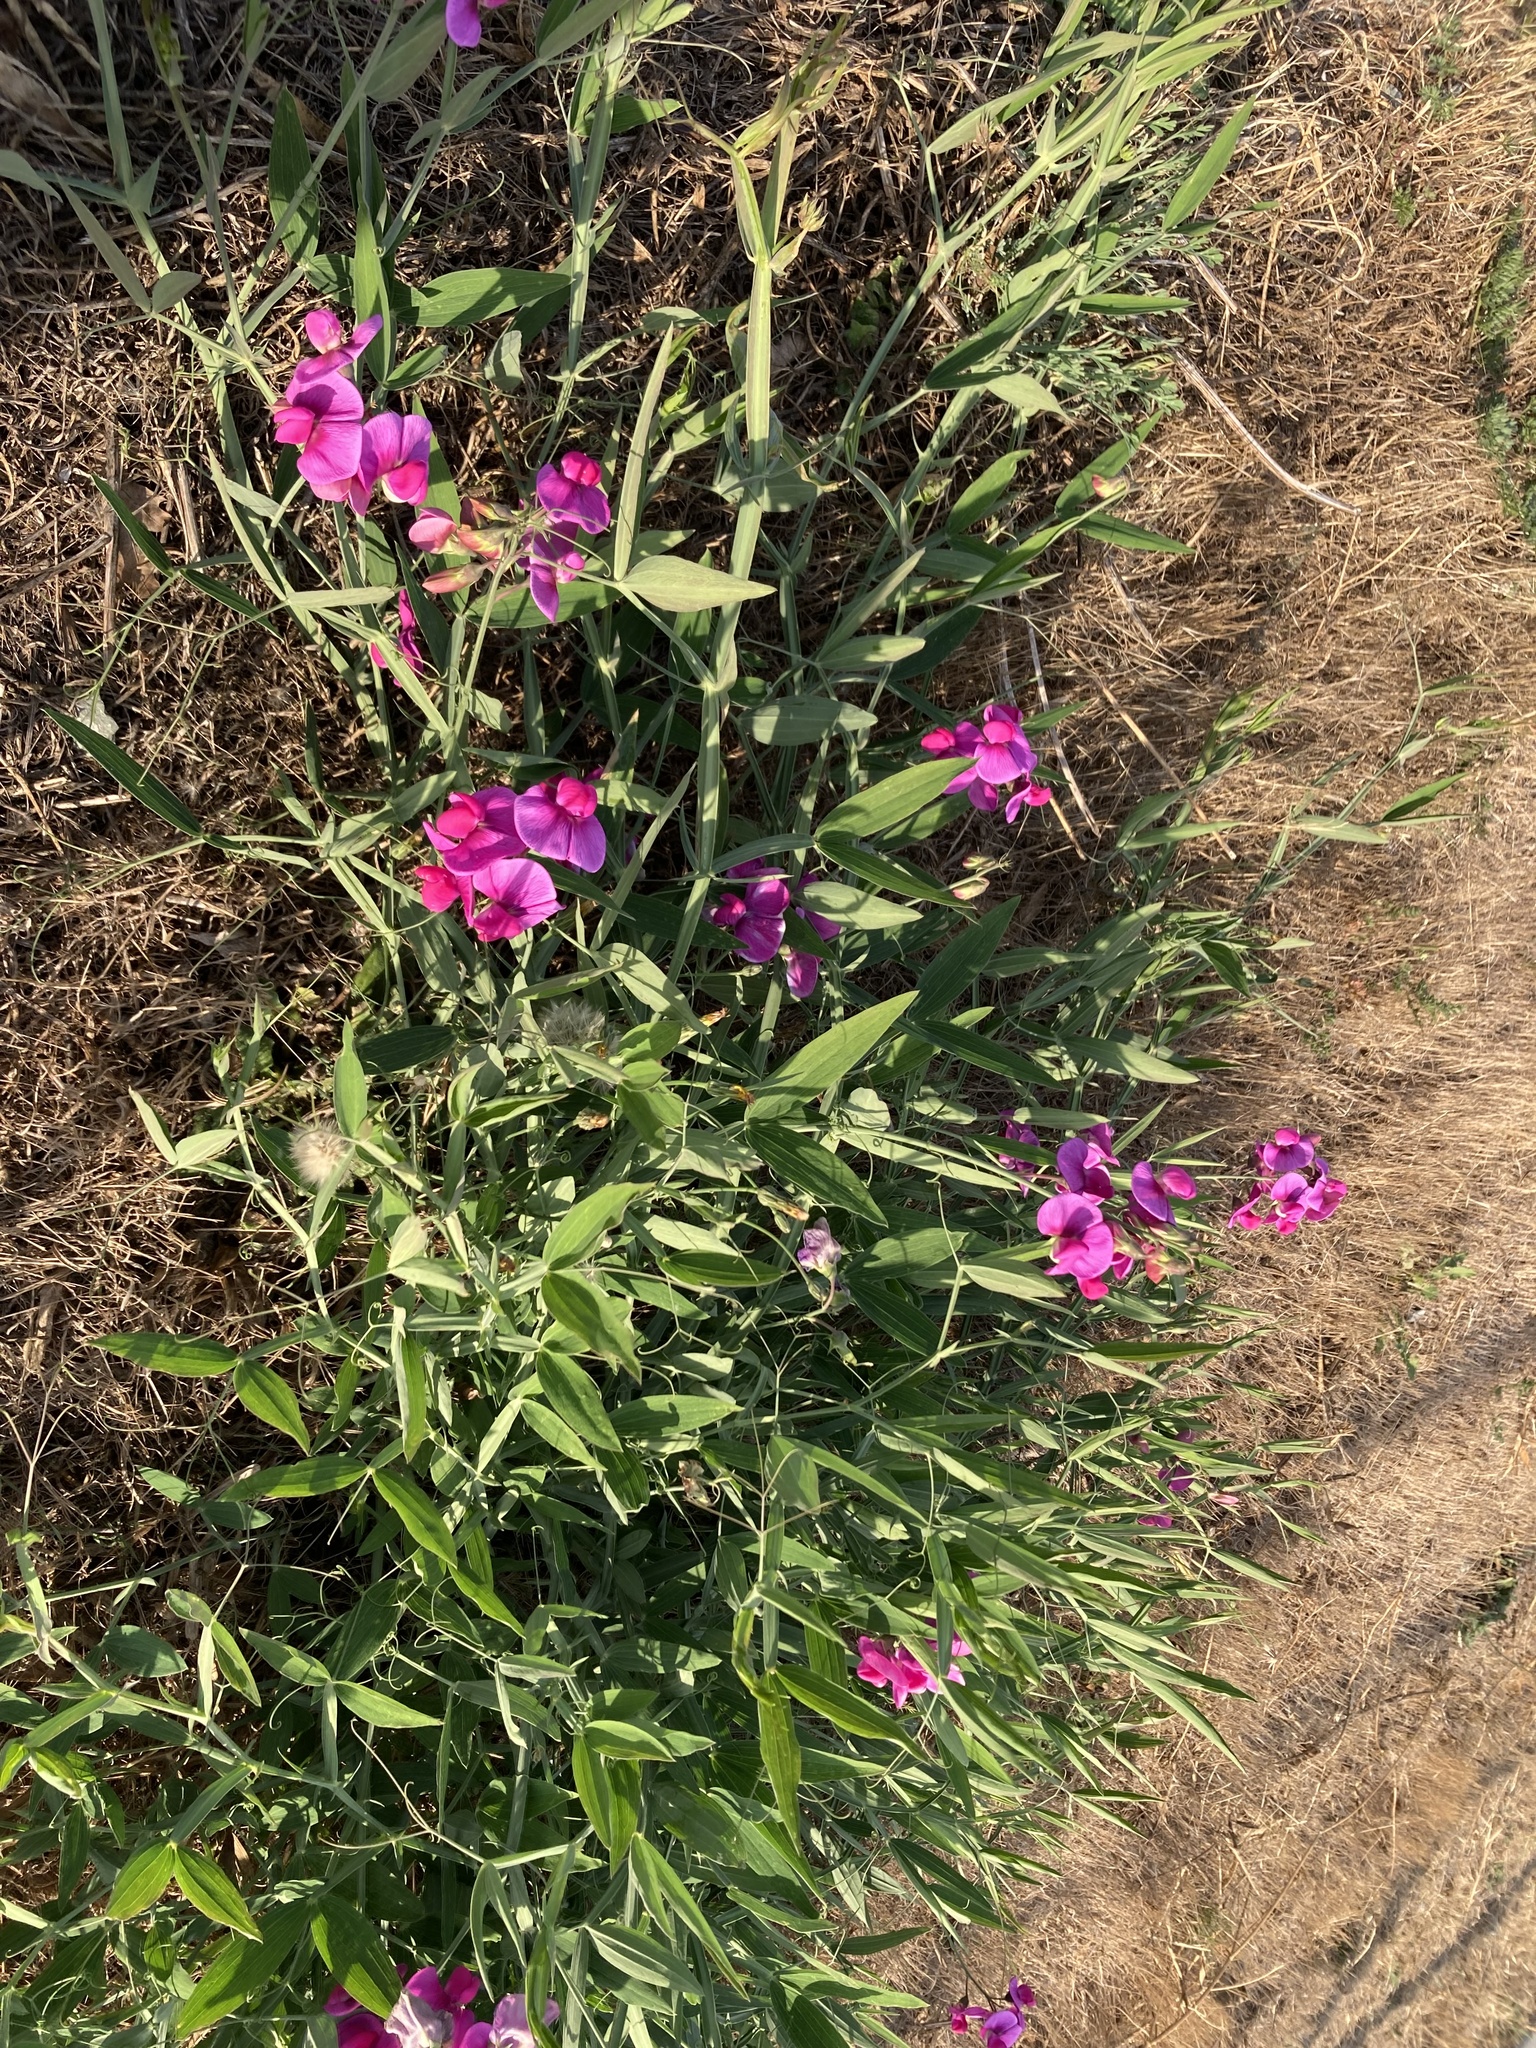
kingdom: Plantae
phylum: Tracheophyta
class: Magnoliopsida
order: Fabales
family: Fabaceae
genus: Lathyrus
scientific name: Lathyrus latifolius
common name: Perennial pea
